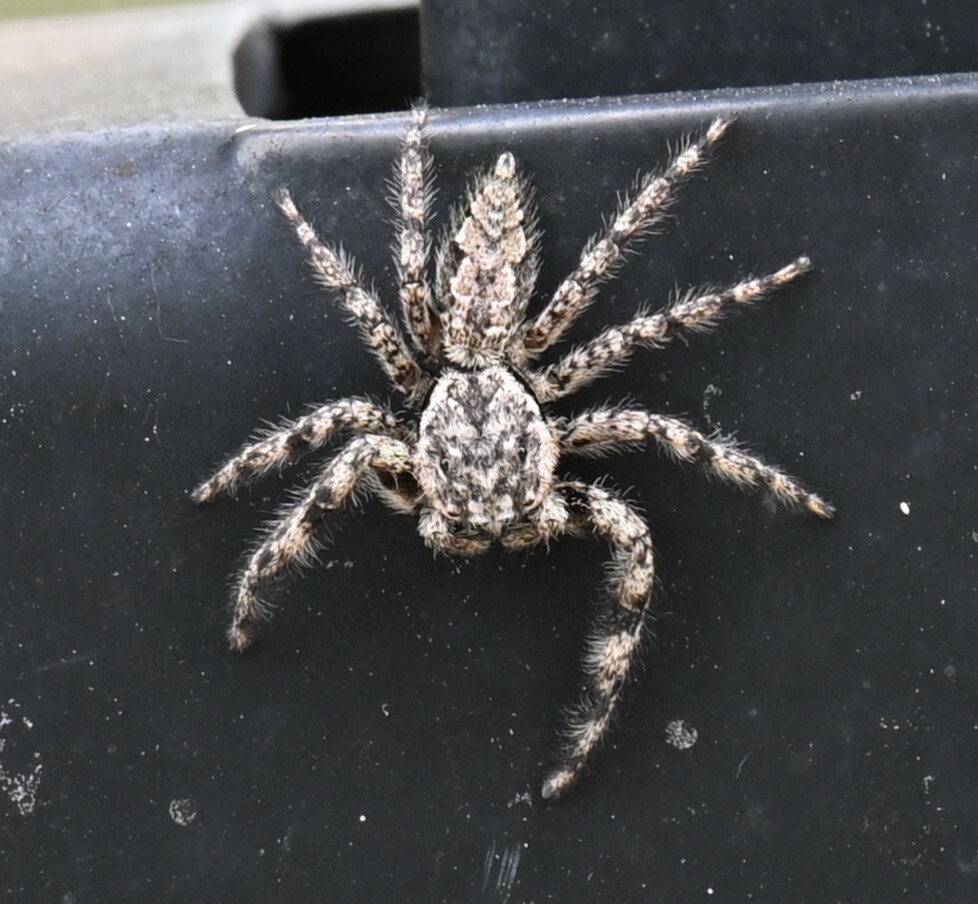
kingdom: Animalia
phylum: Arthropoda
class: Arachnida
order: Araneae
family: Salticidae
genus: Platycryptus
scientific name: Platycryptus undatus
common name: Tan jumping spider
